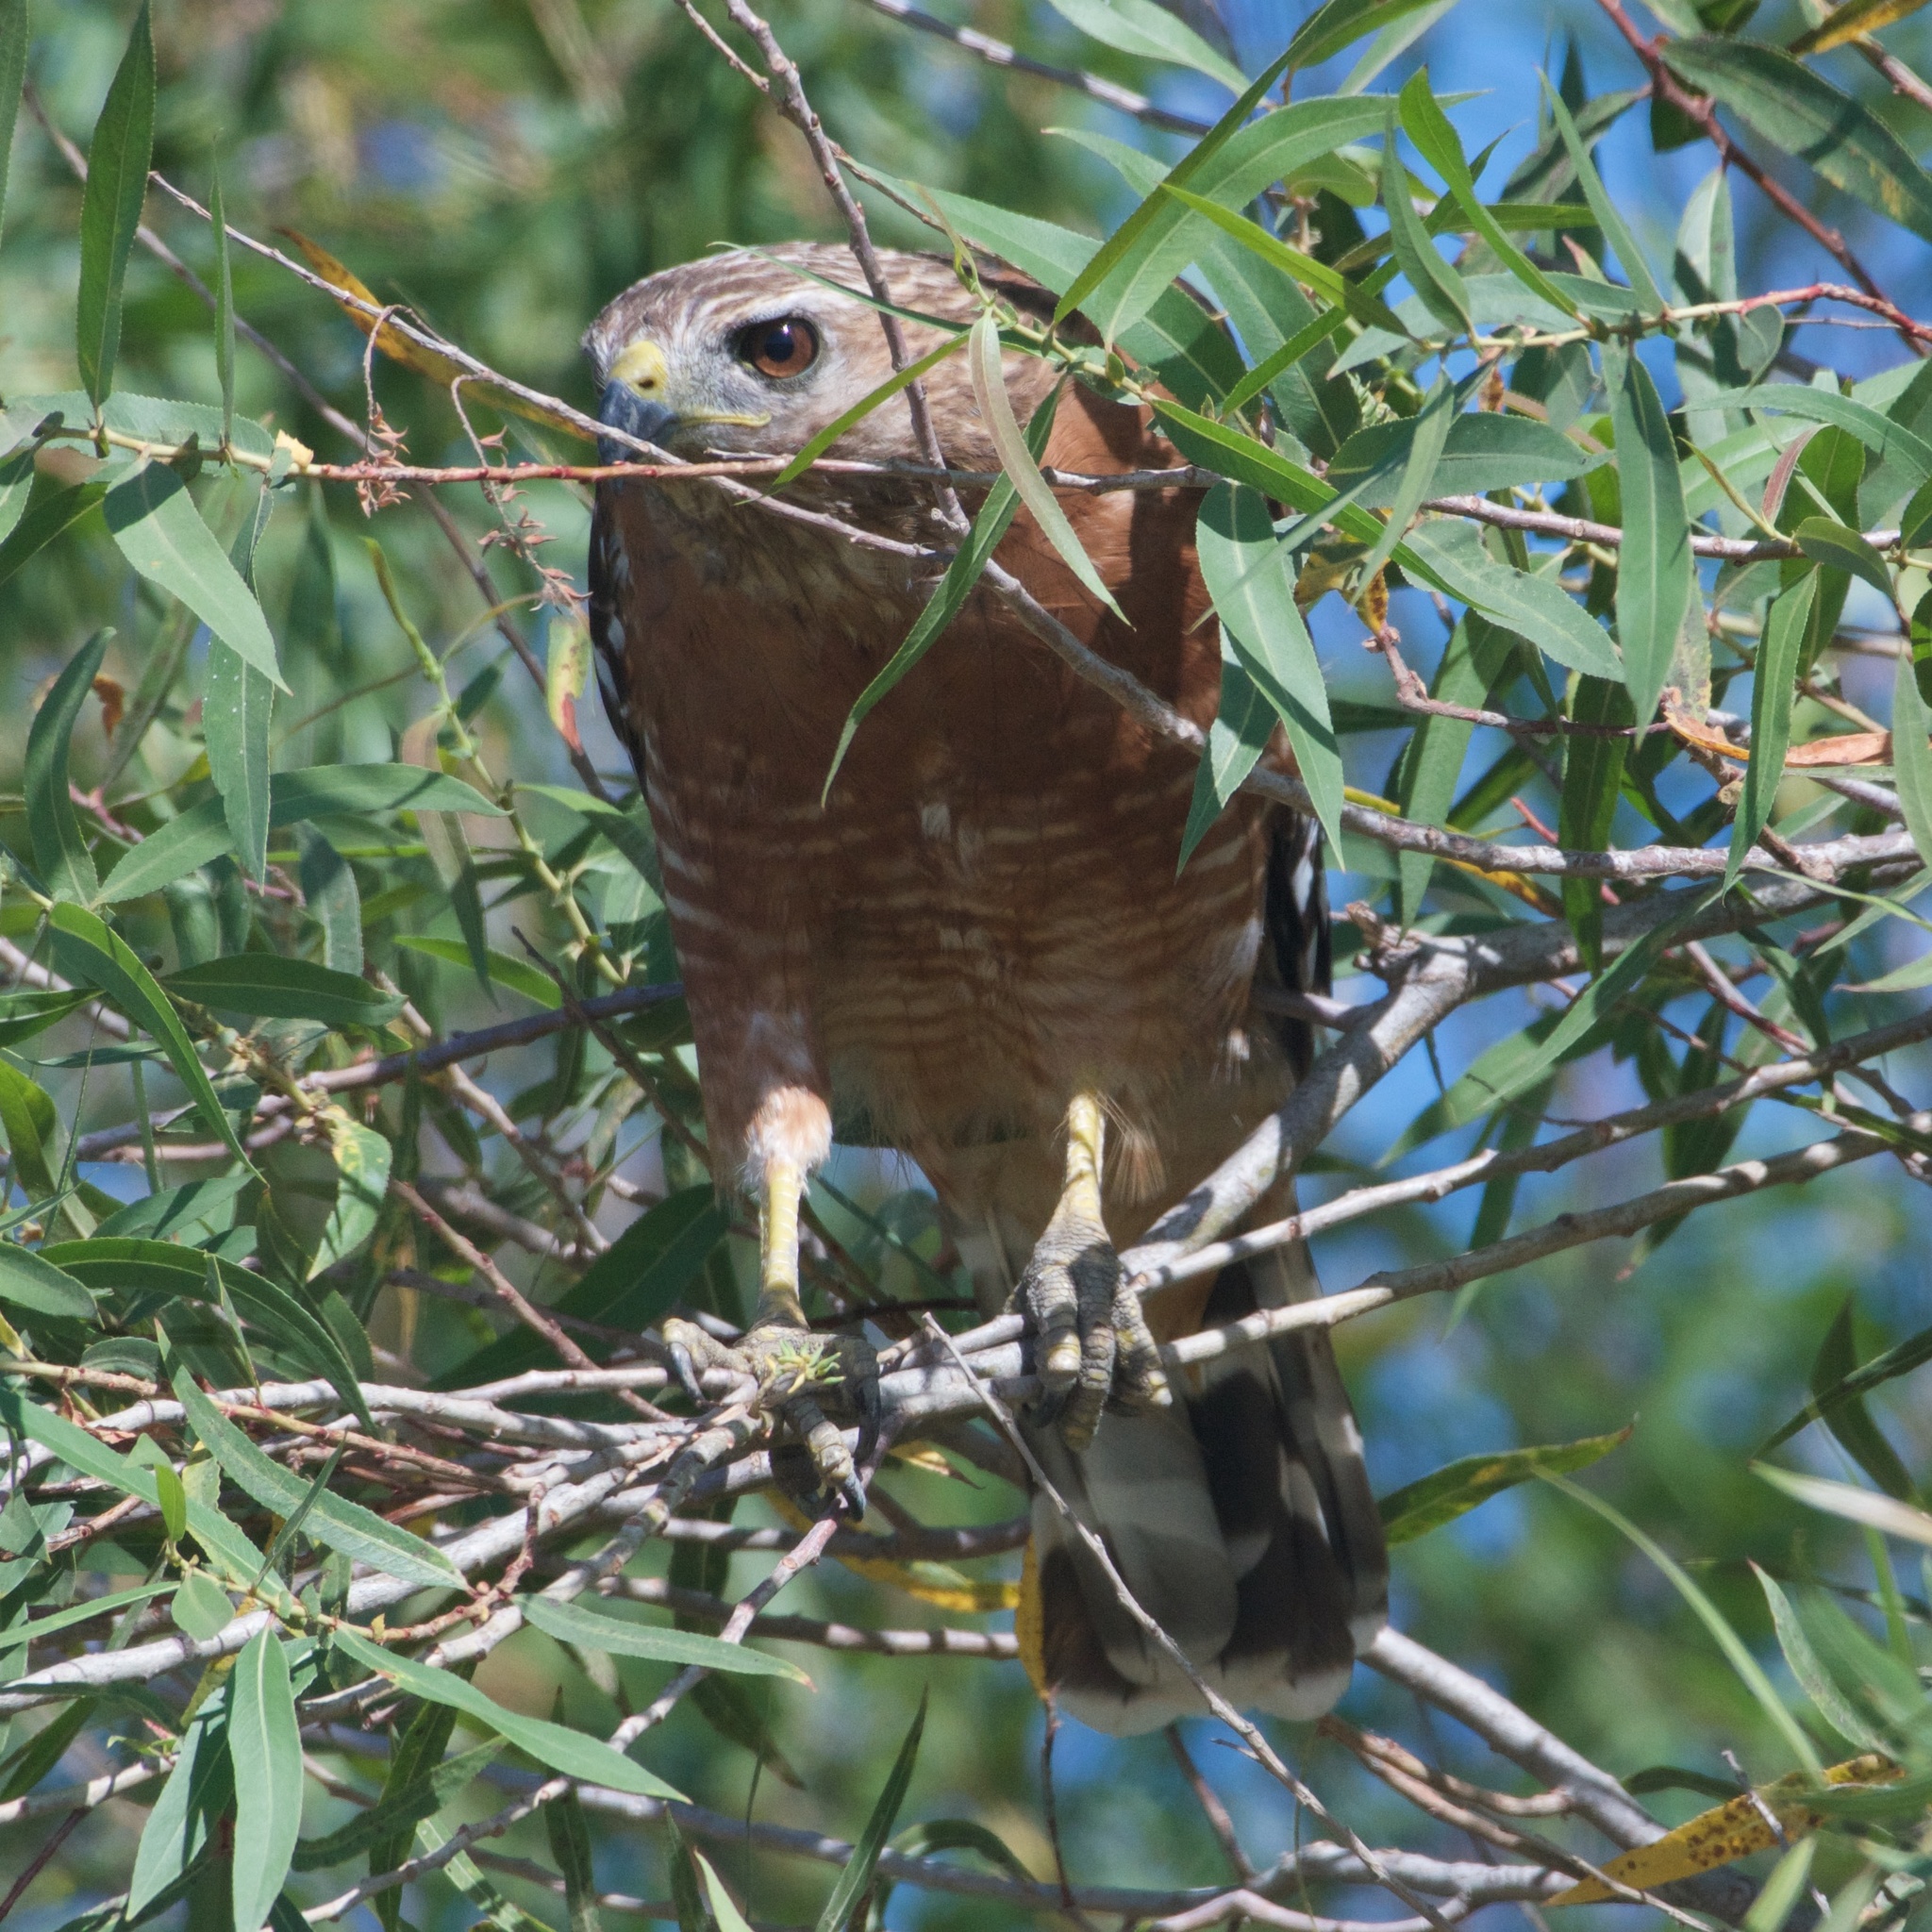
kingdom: Animalia
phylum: Chordata
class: Aves
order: Accipitriformes
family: Accipitridae
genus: Buteo
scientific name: Buteo lineatus
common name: Red-shouldered hawk
